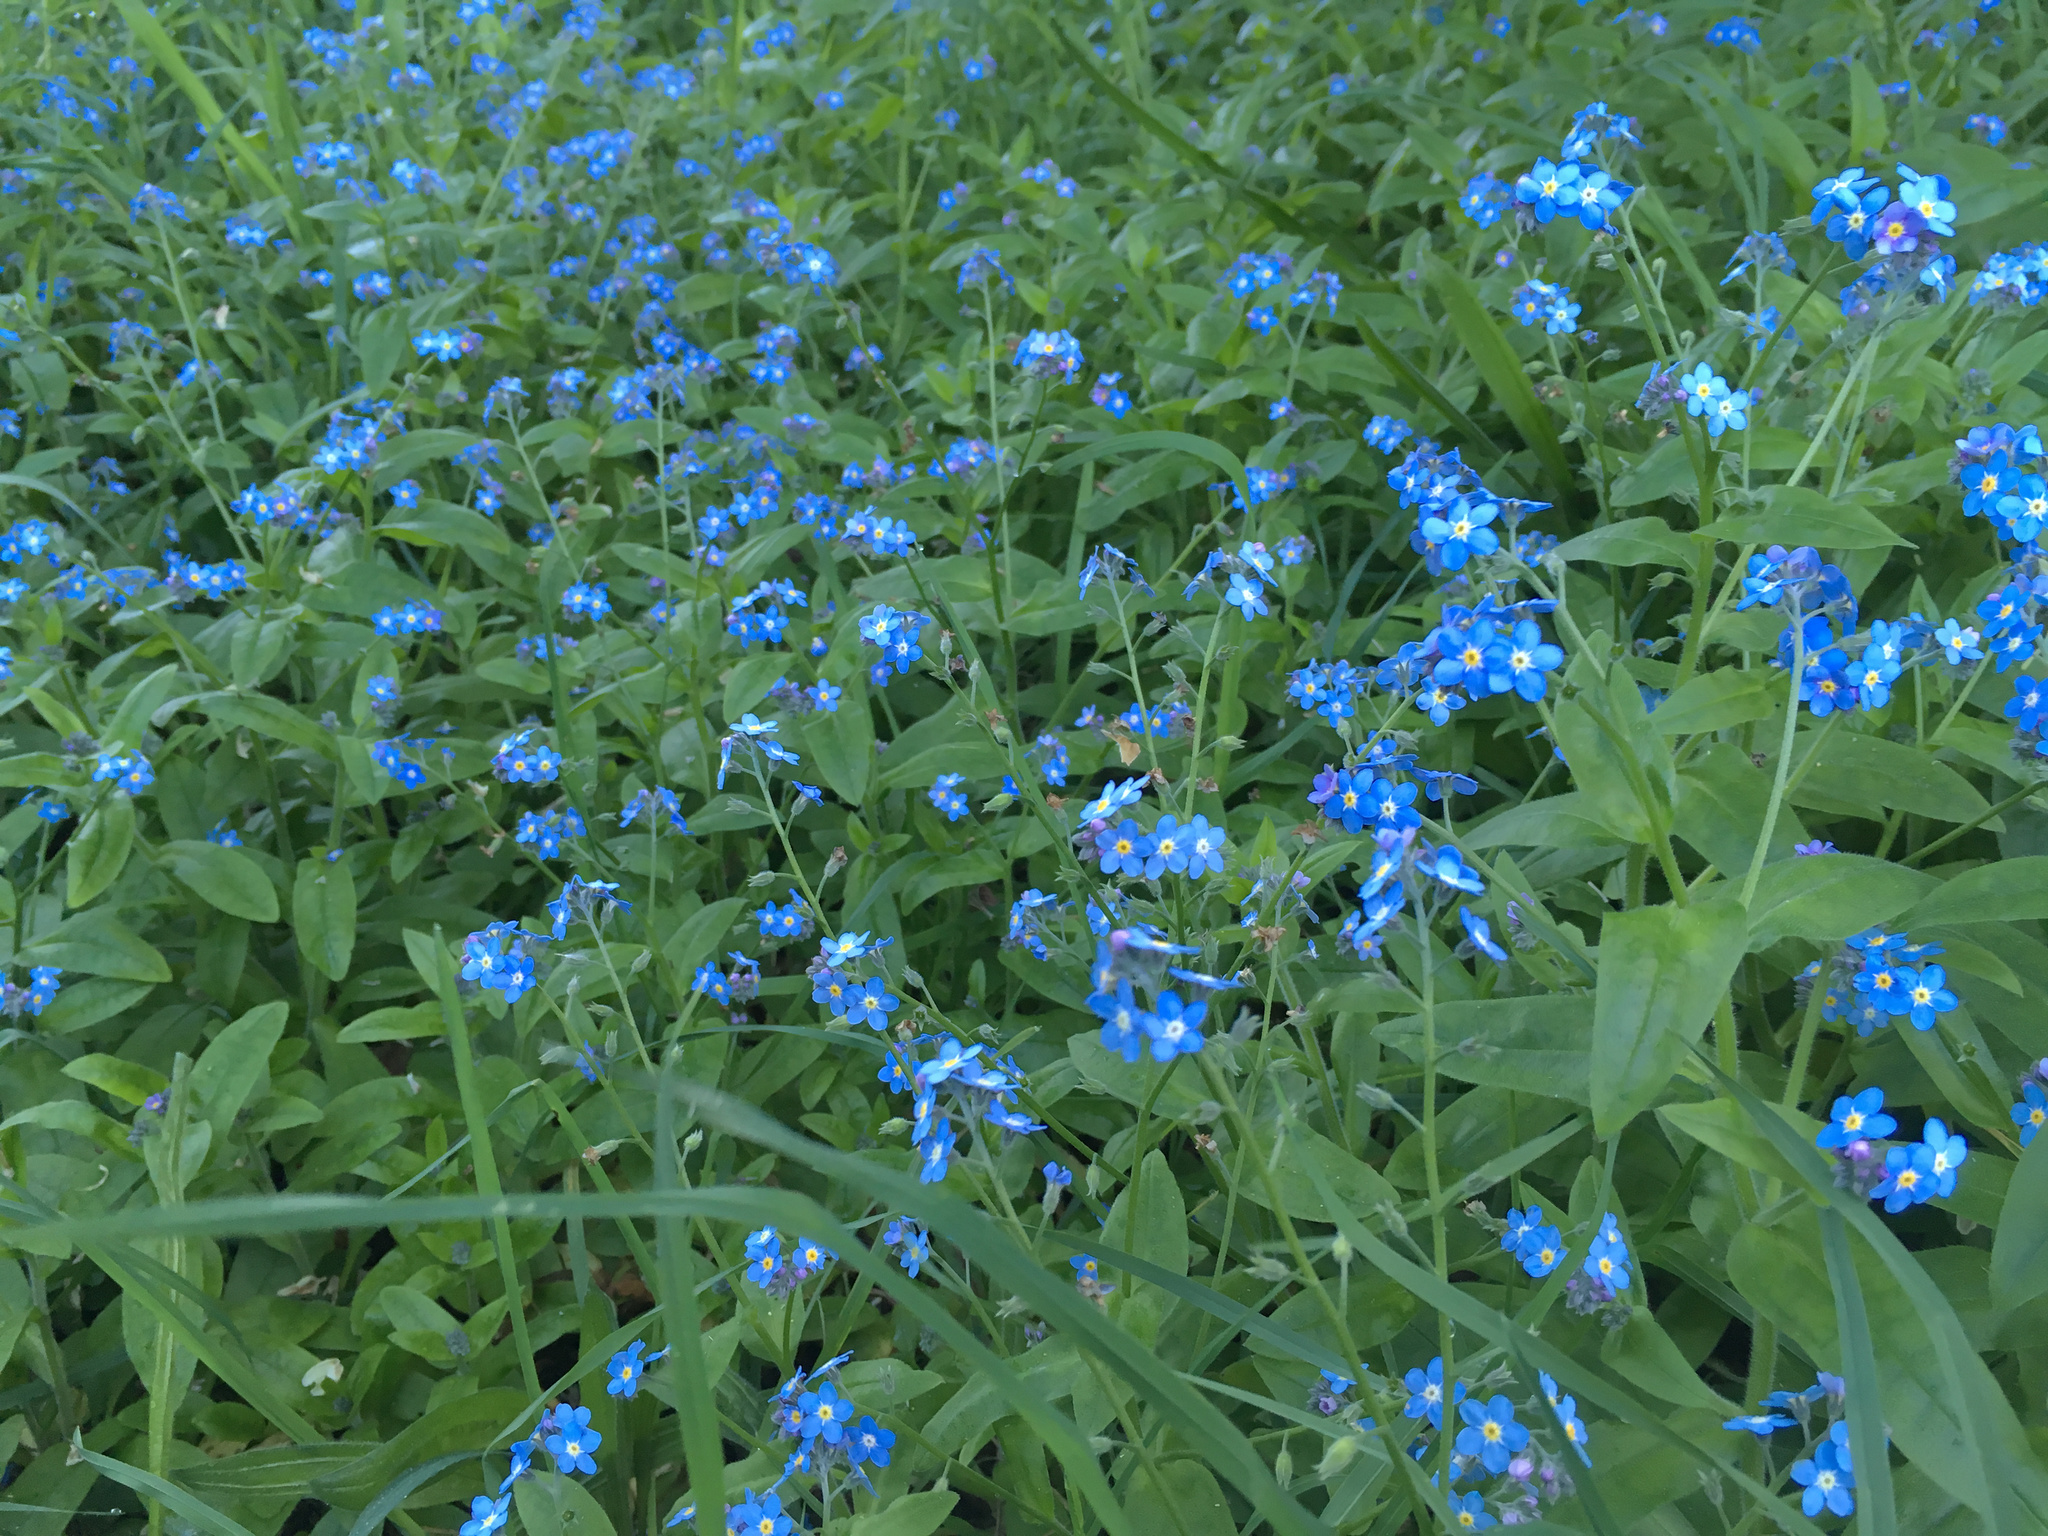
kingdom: Plantae
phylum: Tracheophyta
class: Magnoliopsida
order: Boraginales
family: Boraginaceae
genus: Myosotis
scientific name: Myosotis sylvatica
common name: Wood forget-me-not
